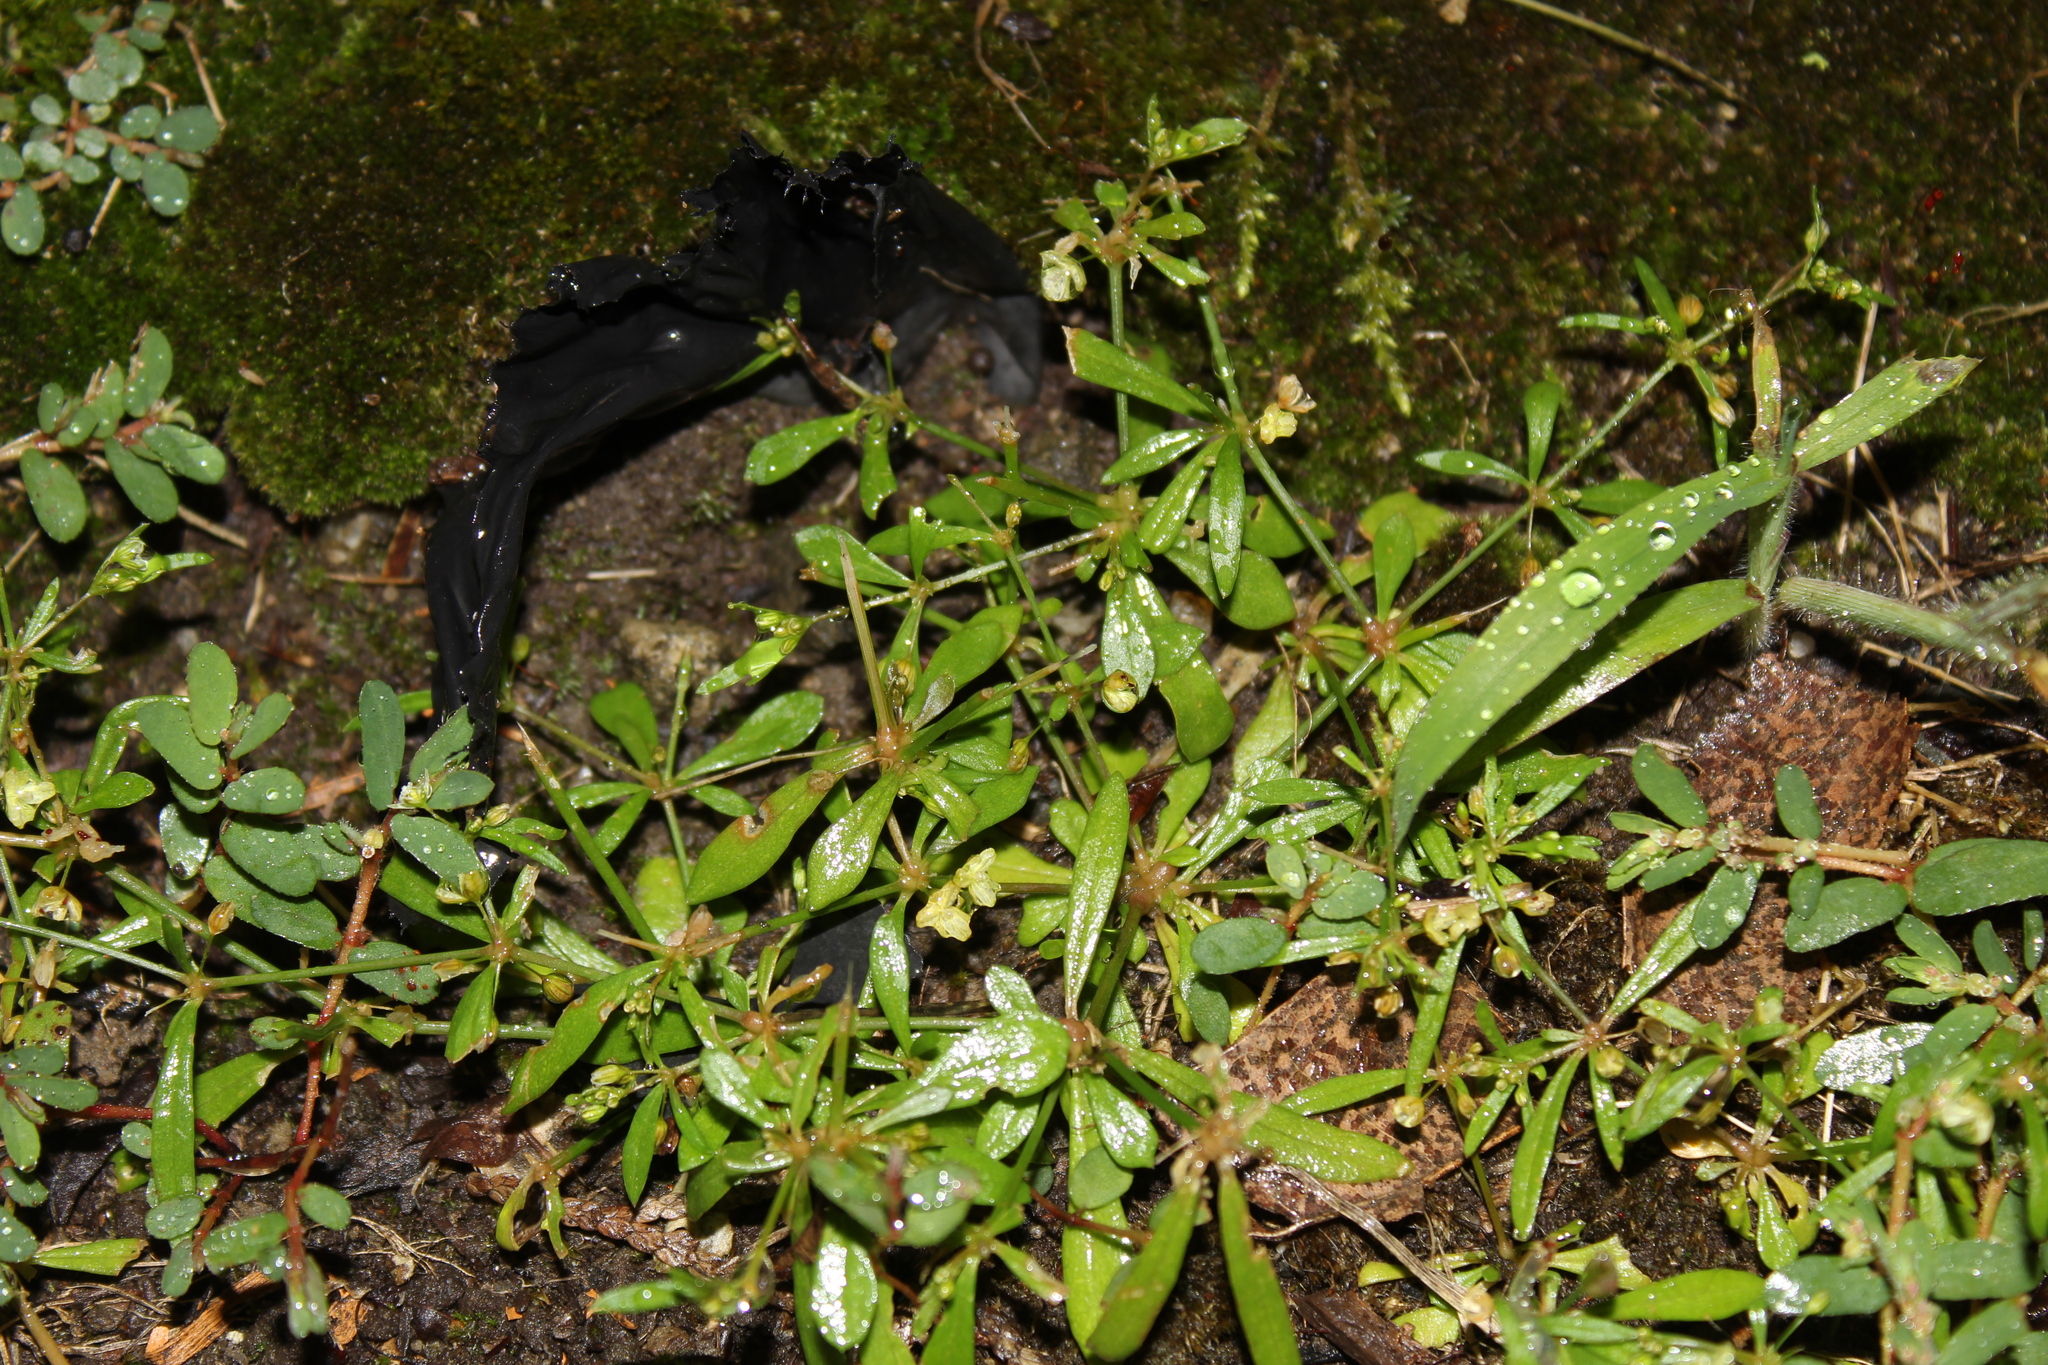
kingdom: Plantae
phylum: Tracheophyta
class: Magnoliopsida
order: Caryophyllales
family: Molluginaceae
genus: Mollugo
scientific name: Mollugo verticillata
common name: Green carpetweed
